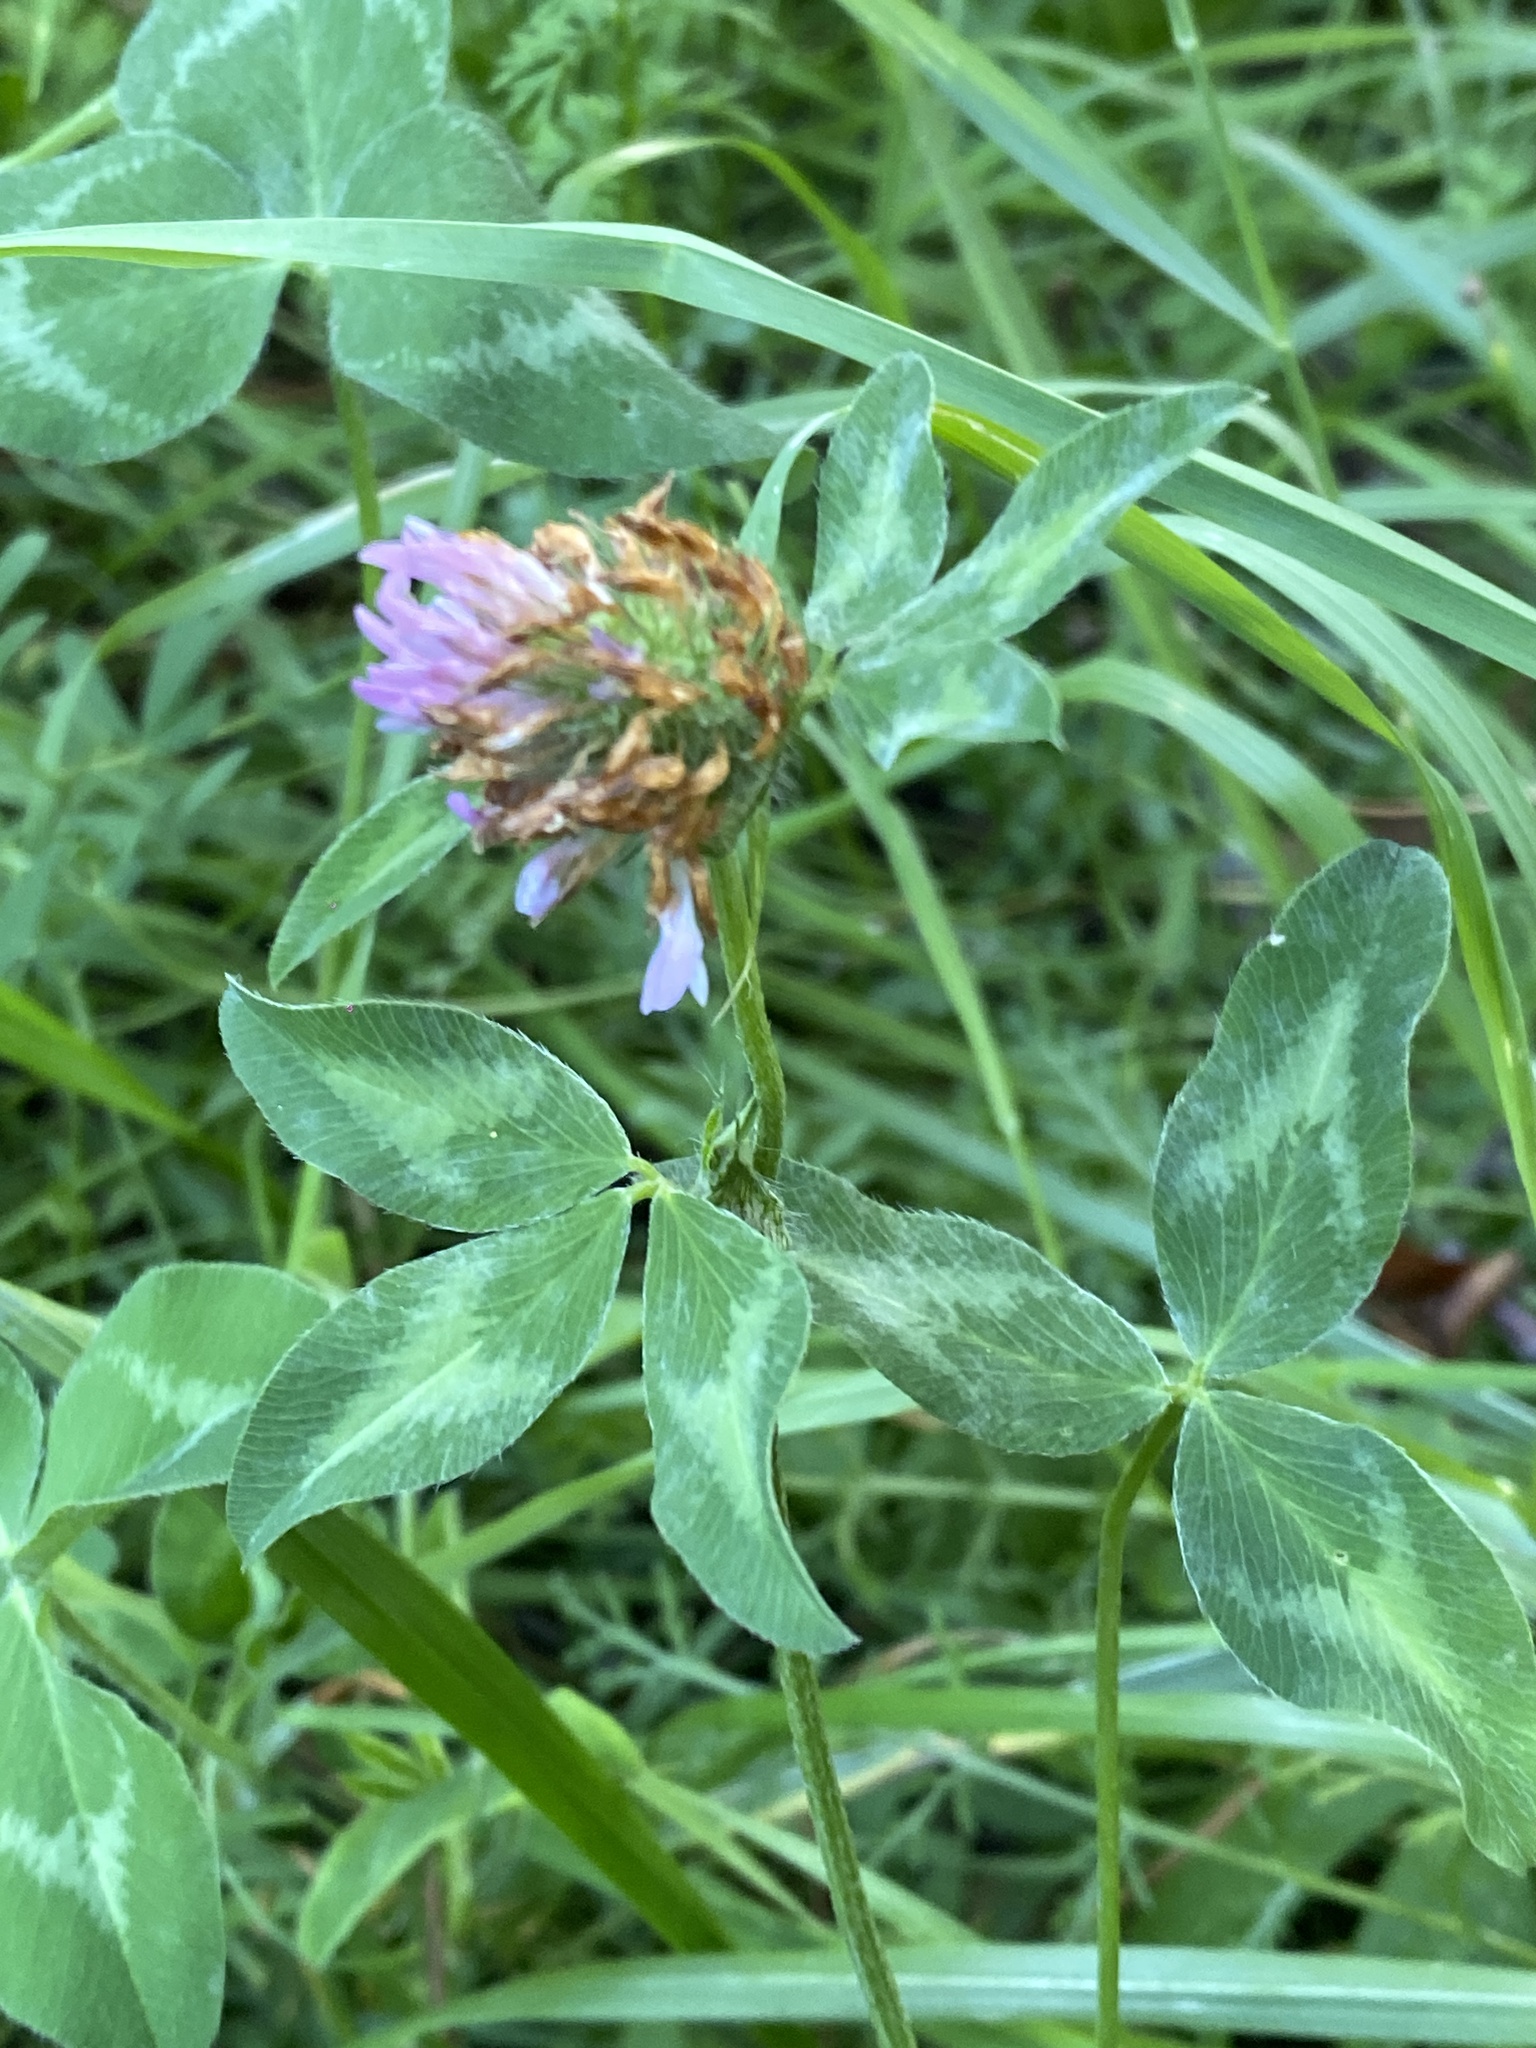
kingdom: Plantae
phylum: Tracheophyta
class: Magnoliopsida
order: Fabales
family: Fabaceae
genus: Trifolium
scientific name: Trifolium pratense
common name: Red clover
